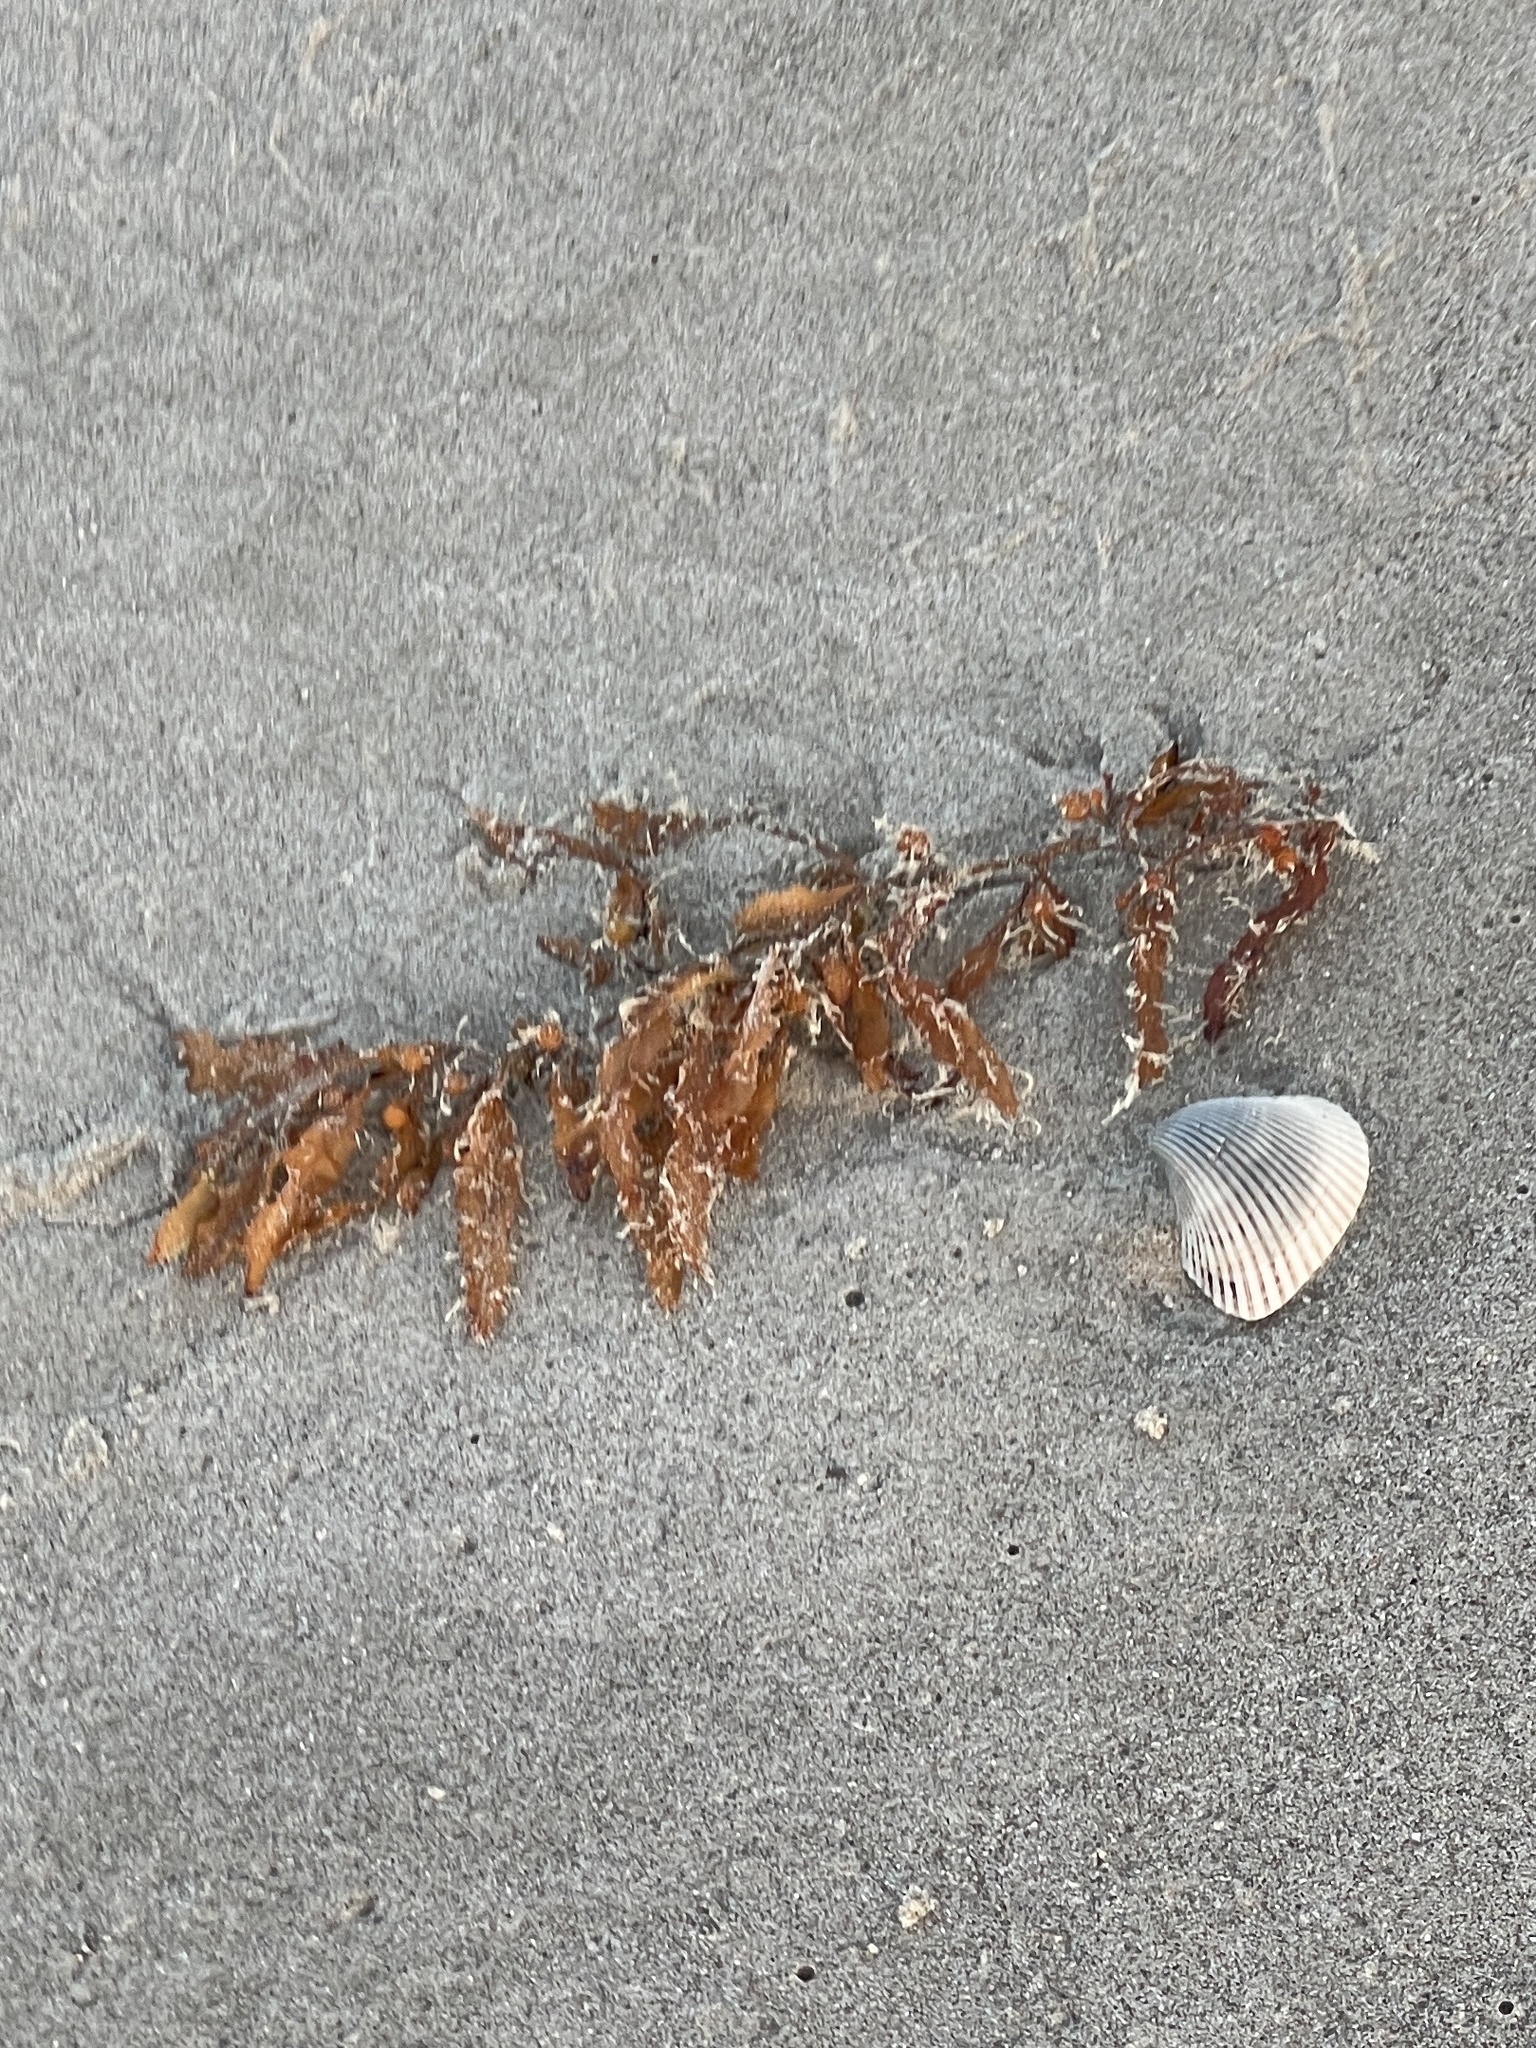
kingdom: Chromista
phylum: Ochrophyta
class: Phaeophyceae
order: Fucales
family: Sargassaceae
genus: Sargassum
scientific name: Sargassum fluitans
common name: Sargassum seaweed
